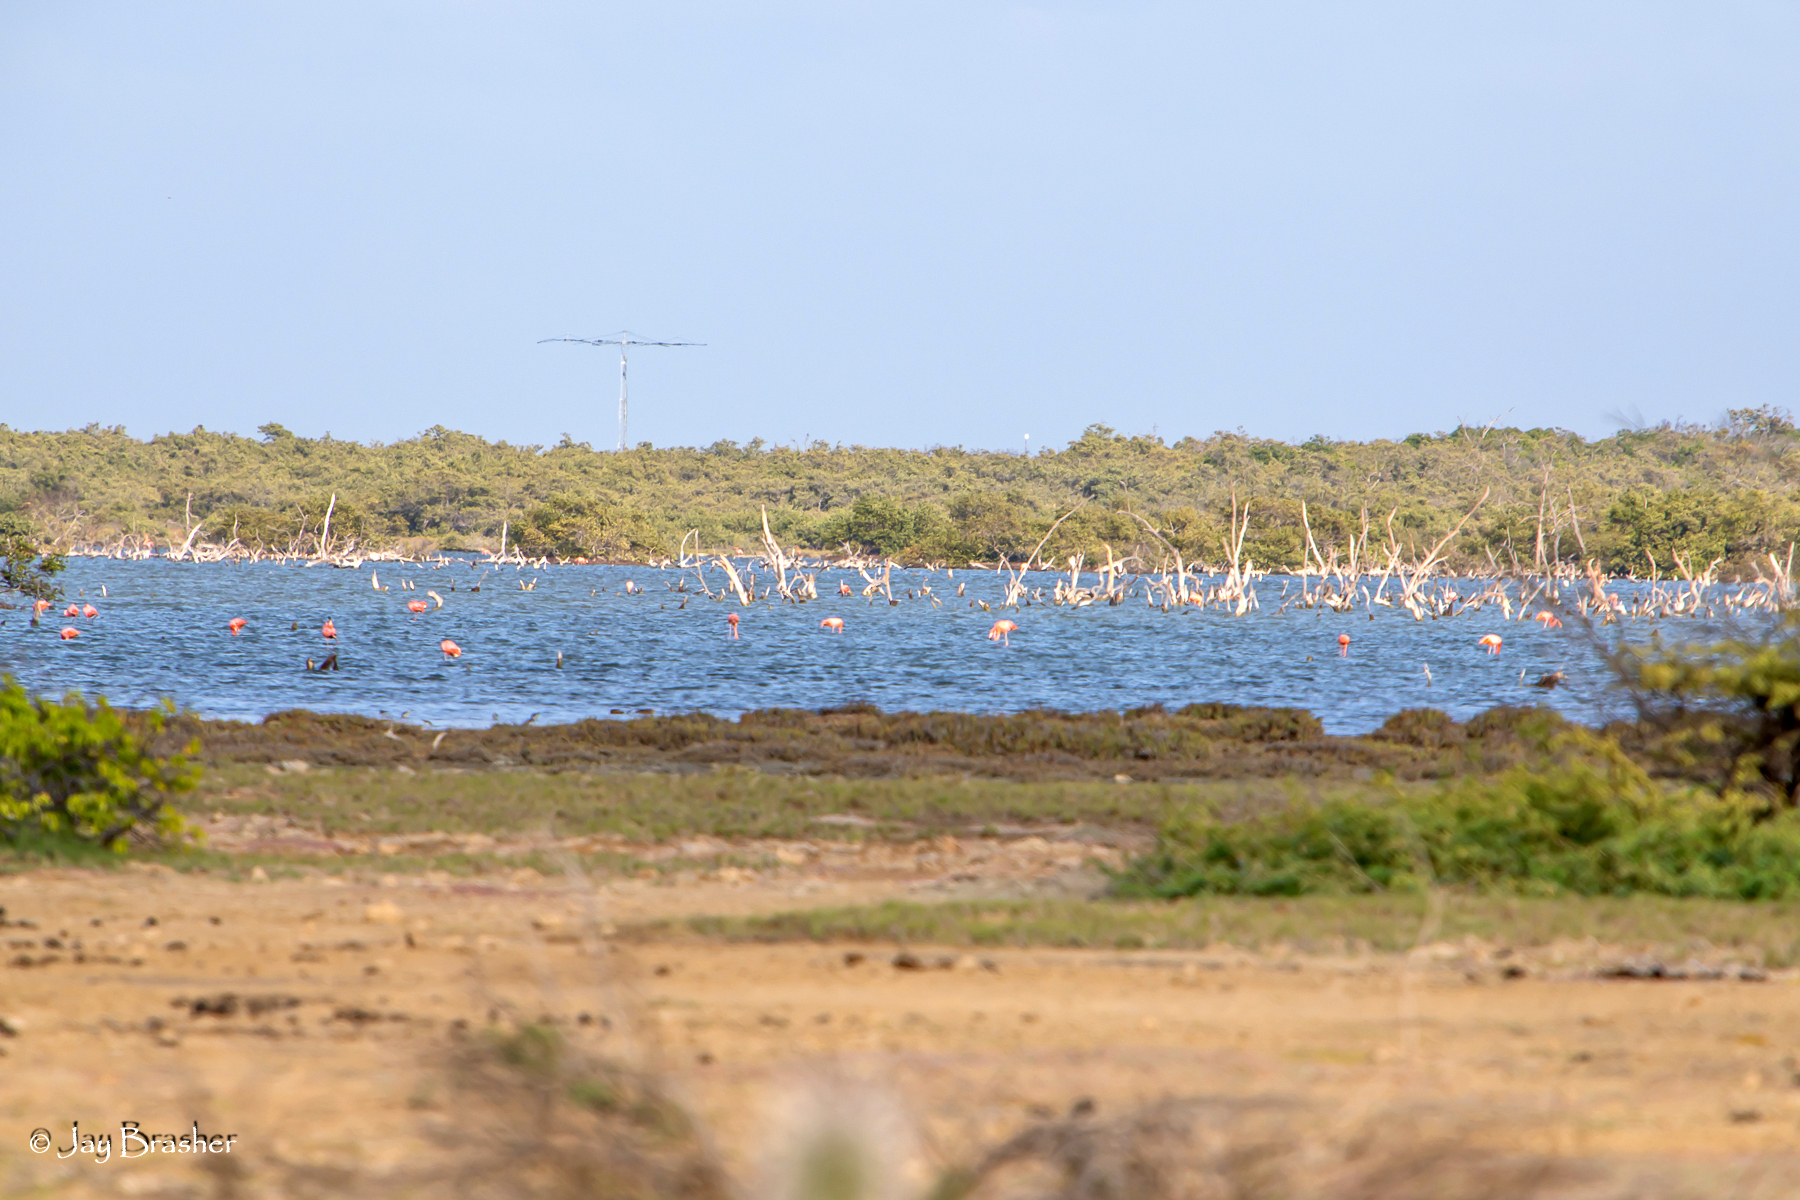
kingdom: Animalia
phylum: Chordata
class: Aves
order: Phoenicopteriformes
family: Phoenicopteridae
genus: Phoenicopterus
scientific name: Phoenicopterus ruber
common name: American flamingo
